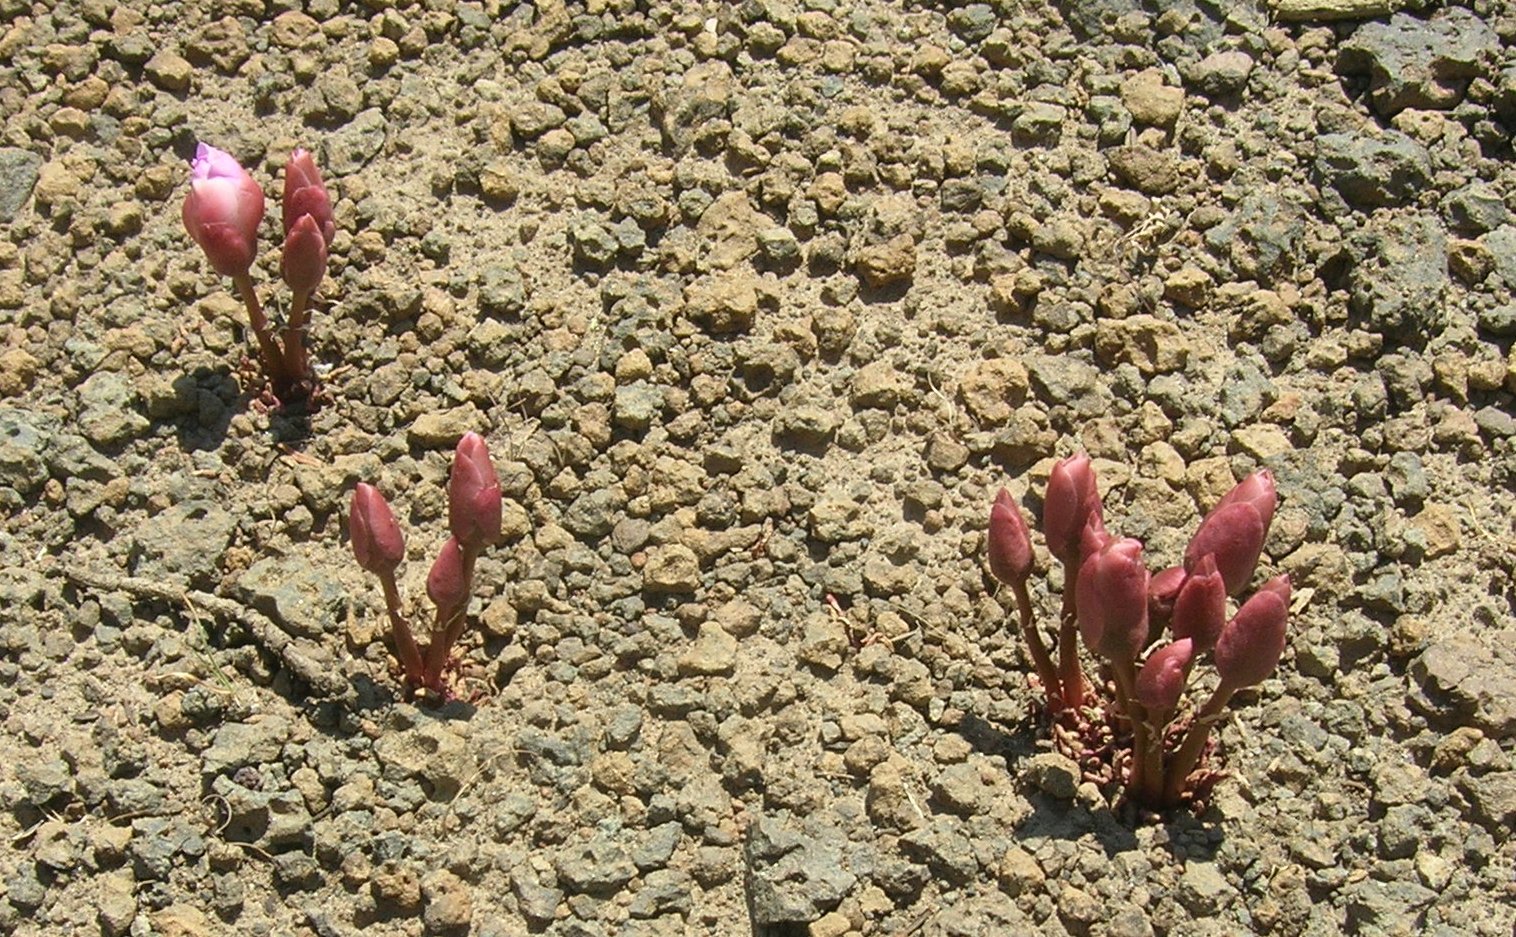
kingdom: Plantae
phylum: Tracheophyta
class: Magnoliopsida
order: Caryophyllales
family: Montiaceae
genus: Lewisia
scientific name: Lewisia rediviva
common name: Bitter-root
